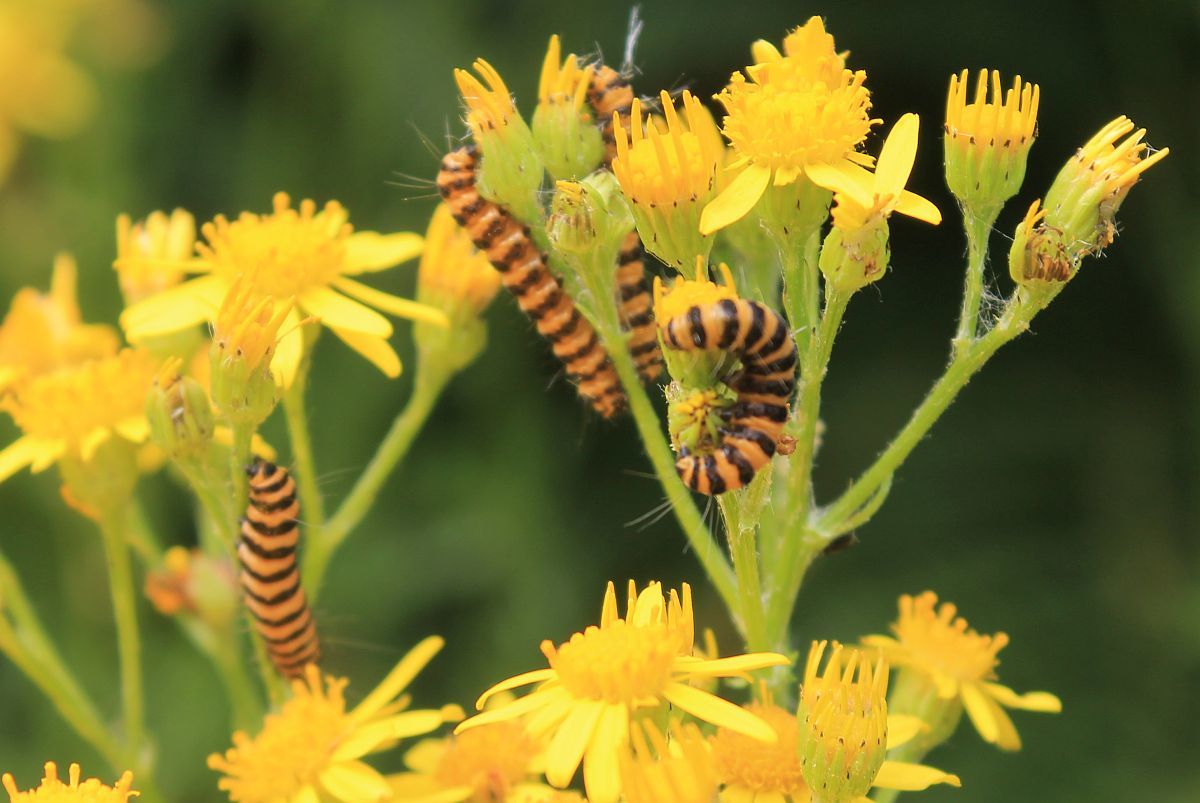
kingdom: Animalia
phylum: Arthropoda
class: Insecta
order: Lepidoptera
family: Erebidae
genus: Tyria
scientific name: Tyria jacobaeae
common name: Cinnabar
